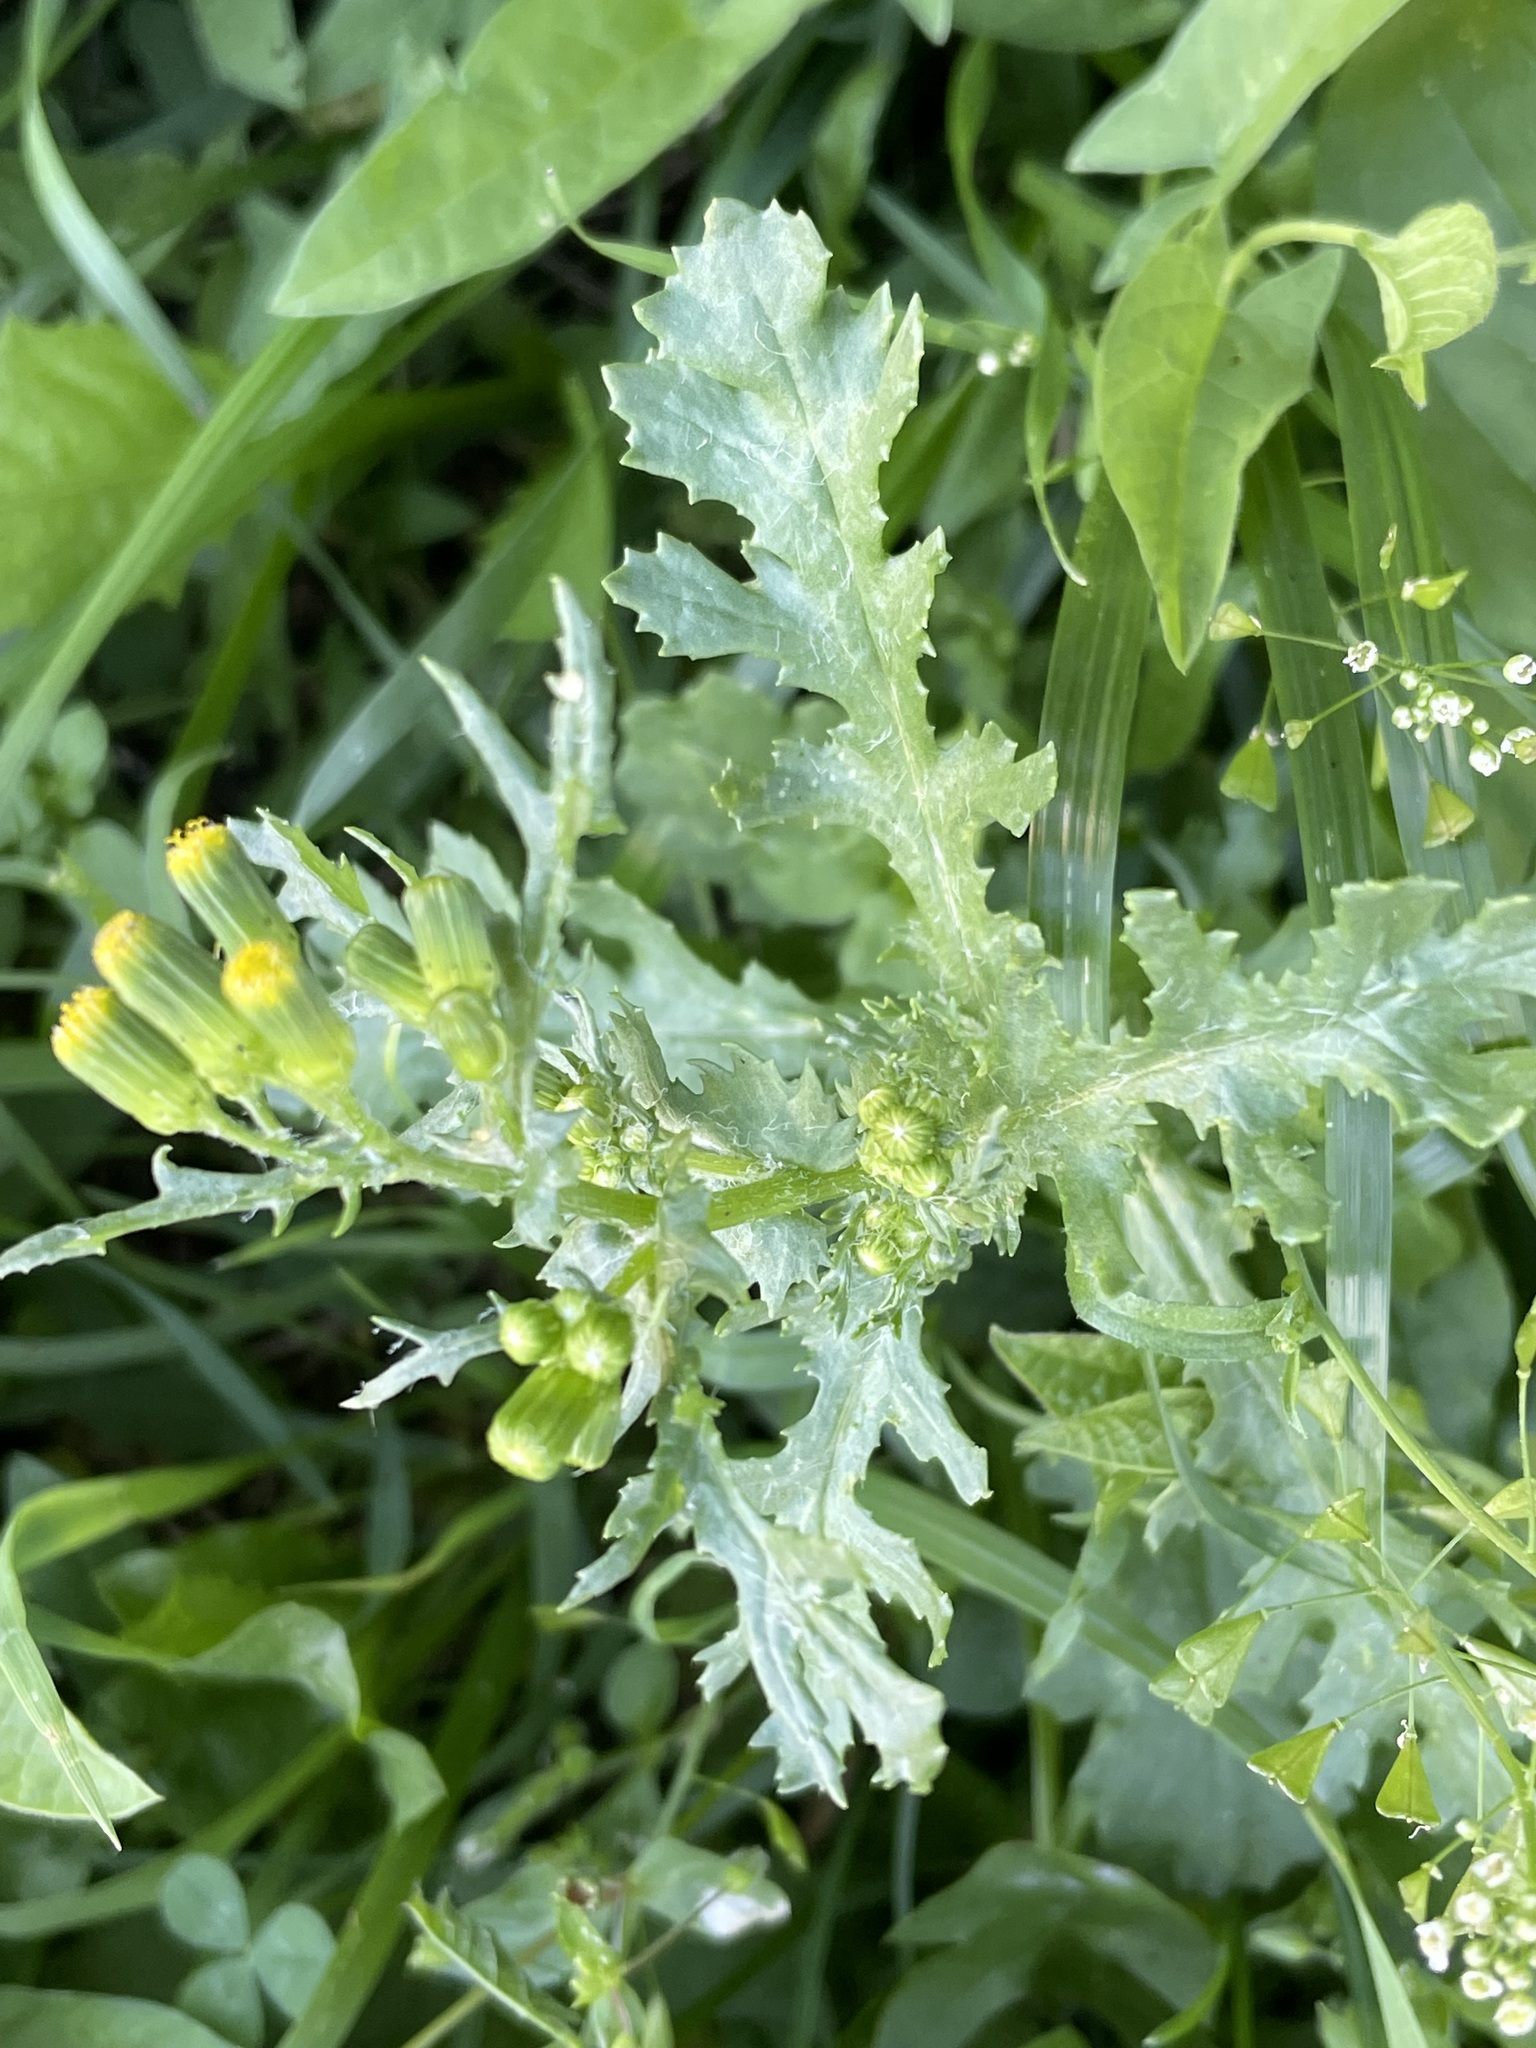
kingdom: Plantae
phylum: Tracheophyta
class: Magnoliopsida
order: Asterales
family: Asteraceae
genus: Senecio
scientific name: Senecio vulgaris
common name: Old-man-in-the-spring
